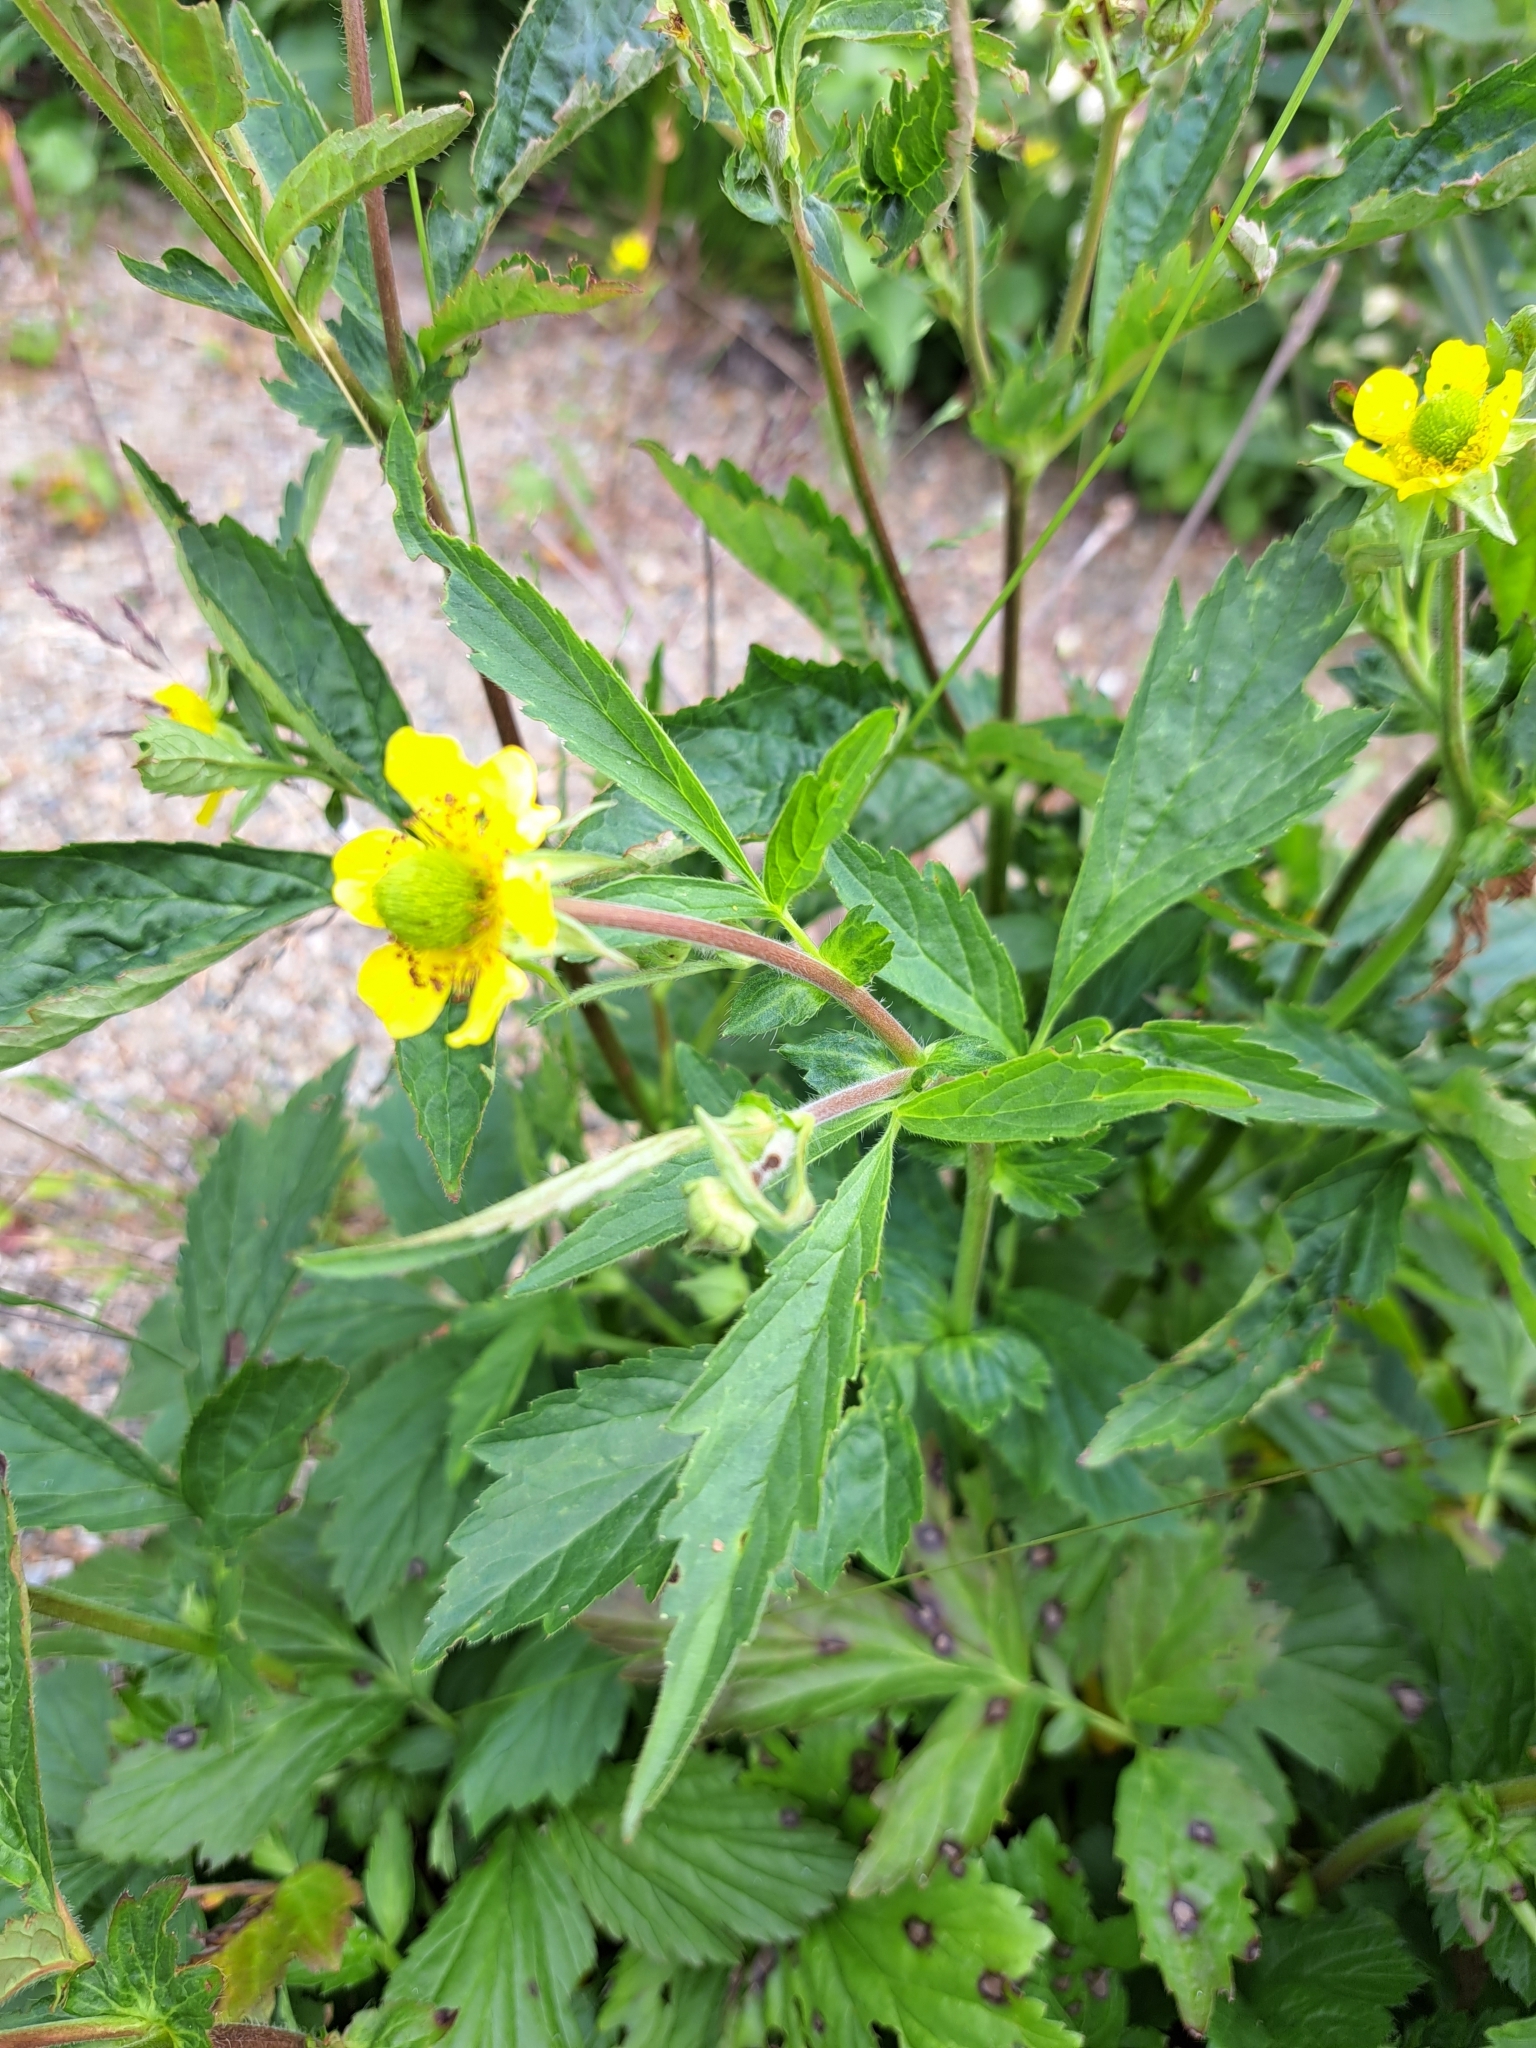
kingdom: Plantae
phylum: Tracheophyta
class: Magnoliopsida
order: Rosales
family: Rosaceae
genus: Geum
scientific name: Geum aleppicum
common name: Yellow avens
